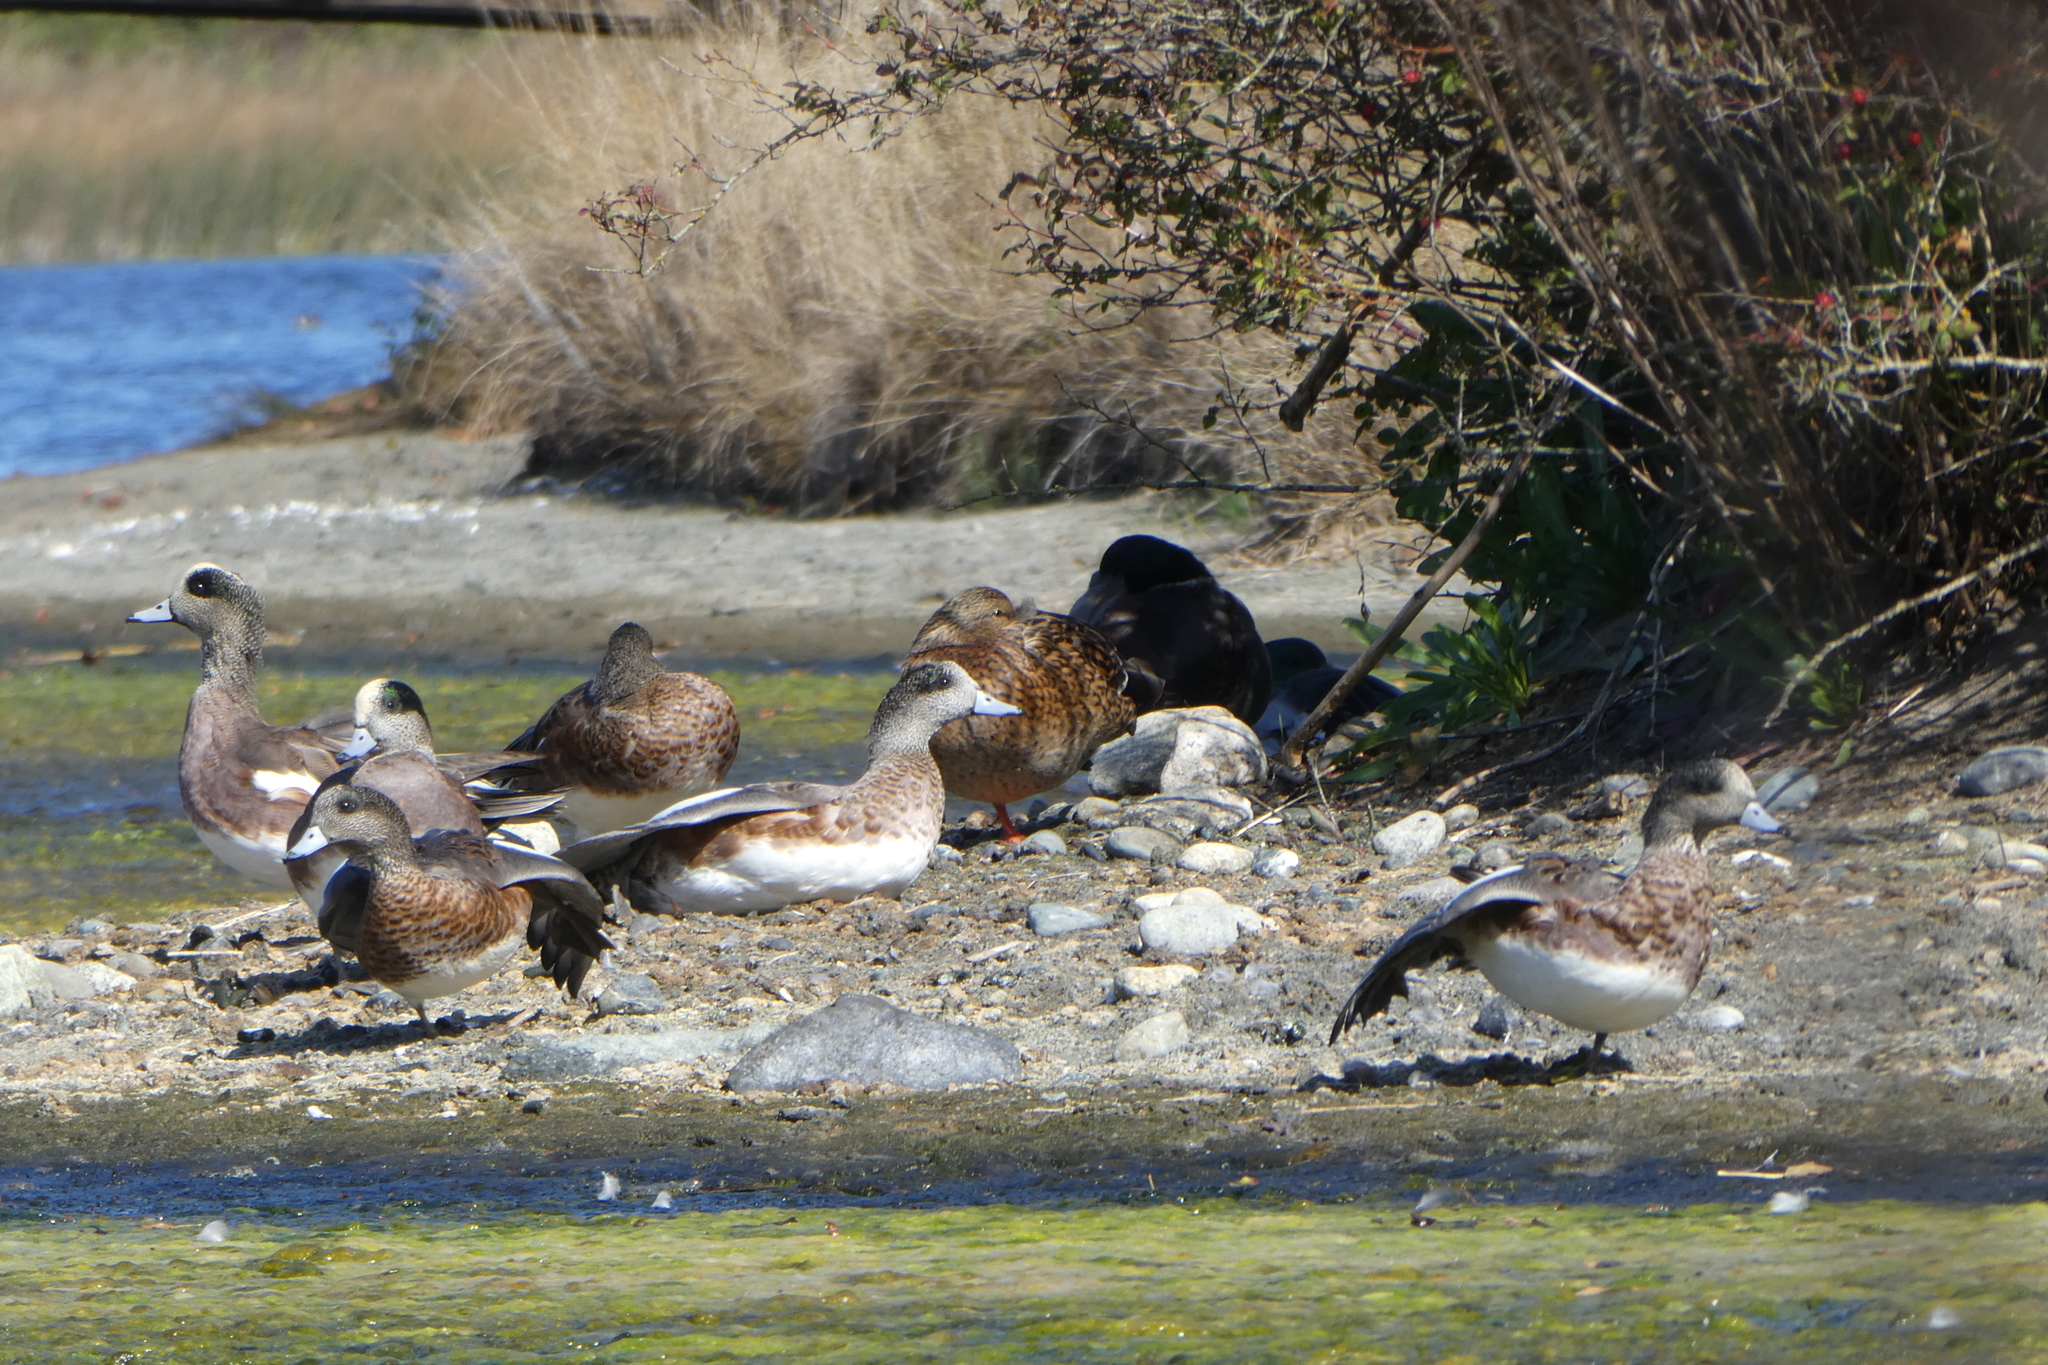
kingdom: Animalia
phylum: Chordata
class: Aves
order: Anseriformes
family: Anatidae
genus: Mareca
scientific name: Mareca americana
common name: American wigeon
